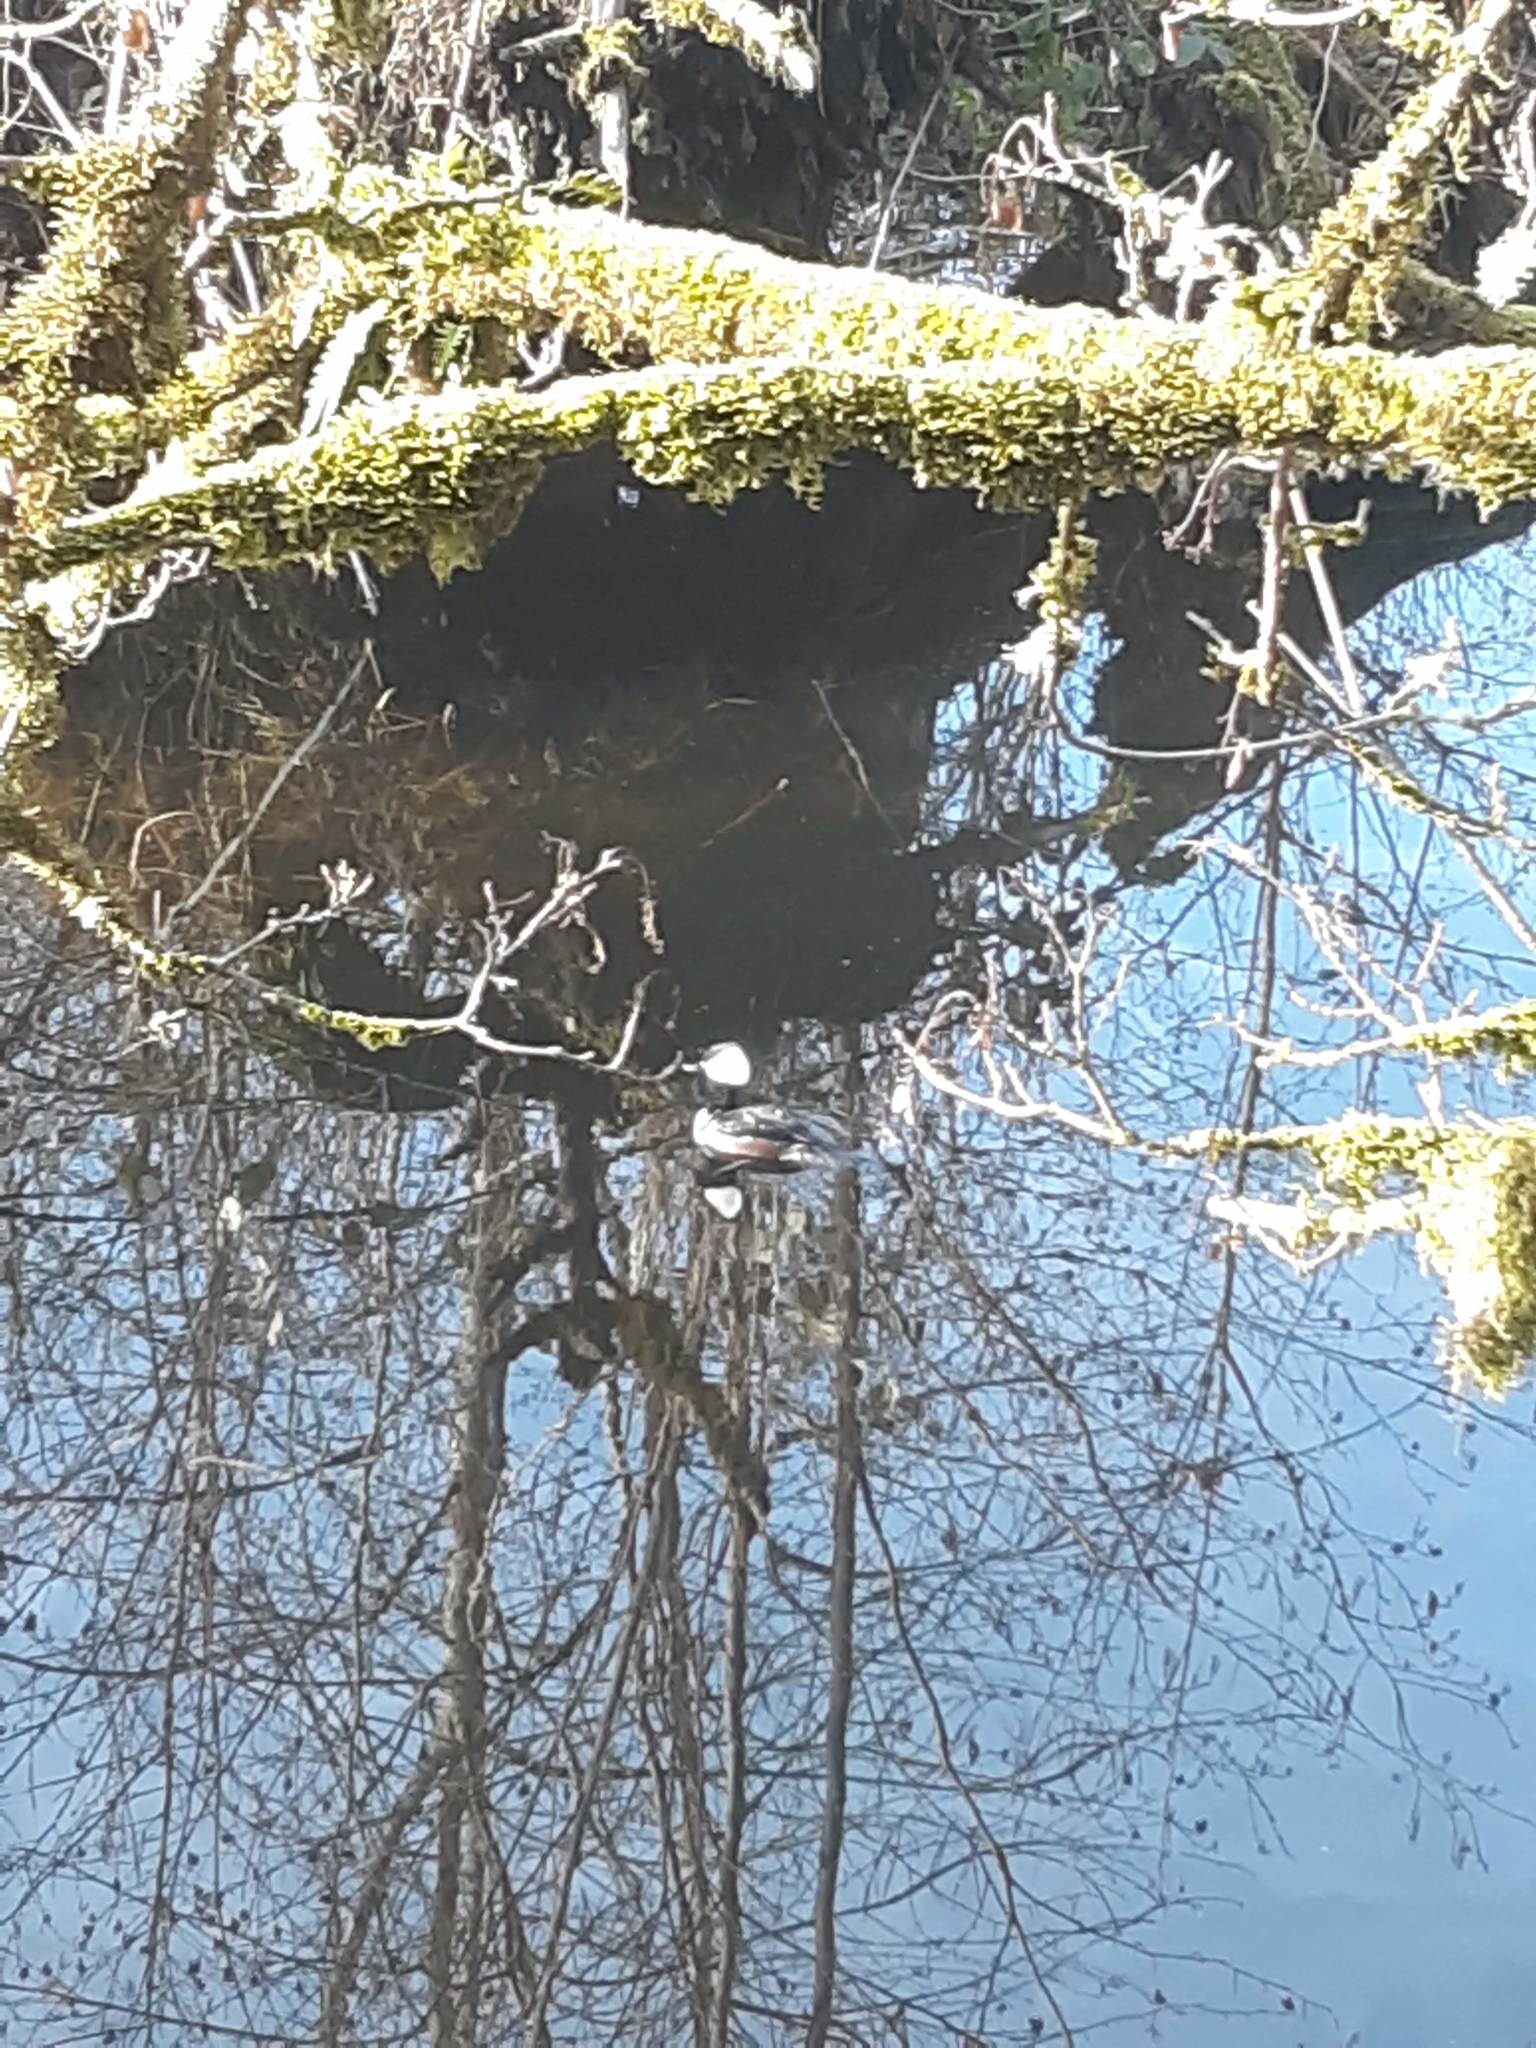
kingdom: Animalia
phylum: Chordata
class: Aves
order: Anseriformes
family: Anatidae
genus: Lophodytes
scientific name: Lophodytes cucullatus
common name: Hooded merganser
